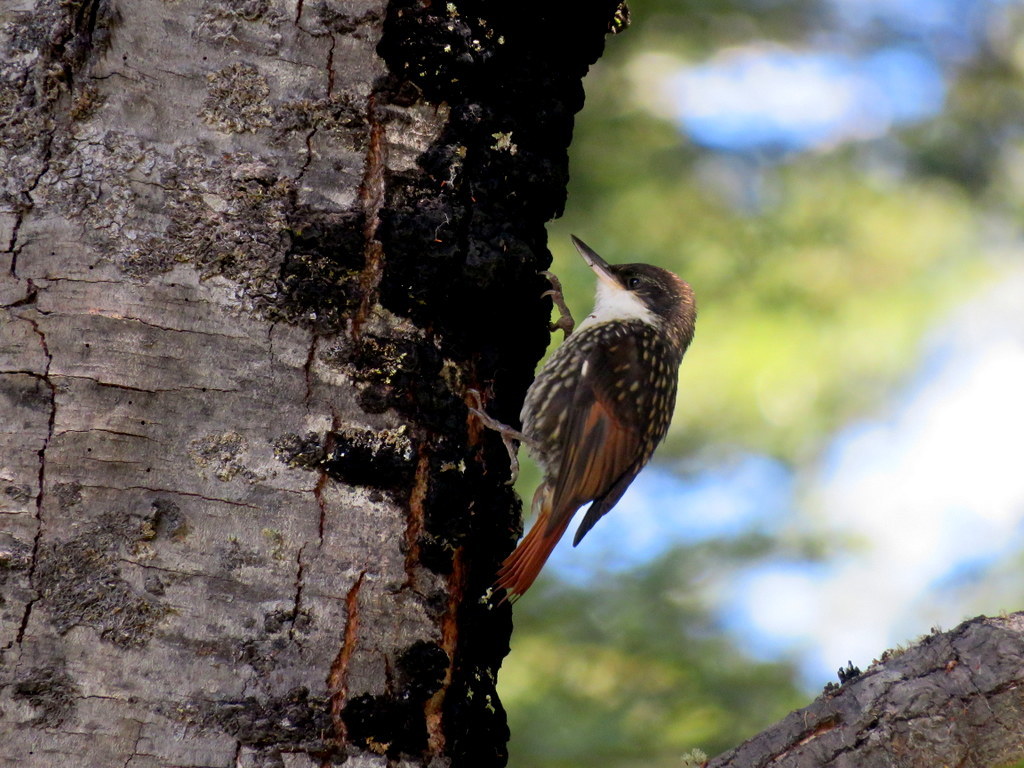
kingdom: Animalia
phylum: Chordata
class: Aves
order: Passeriformes
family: Furnariidae
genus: Pygarrhichas
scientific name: Pygarrhichas albogularis
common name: White-throated treerunner
